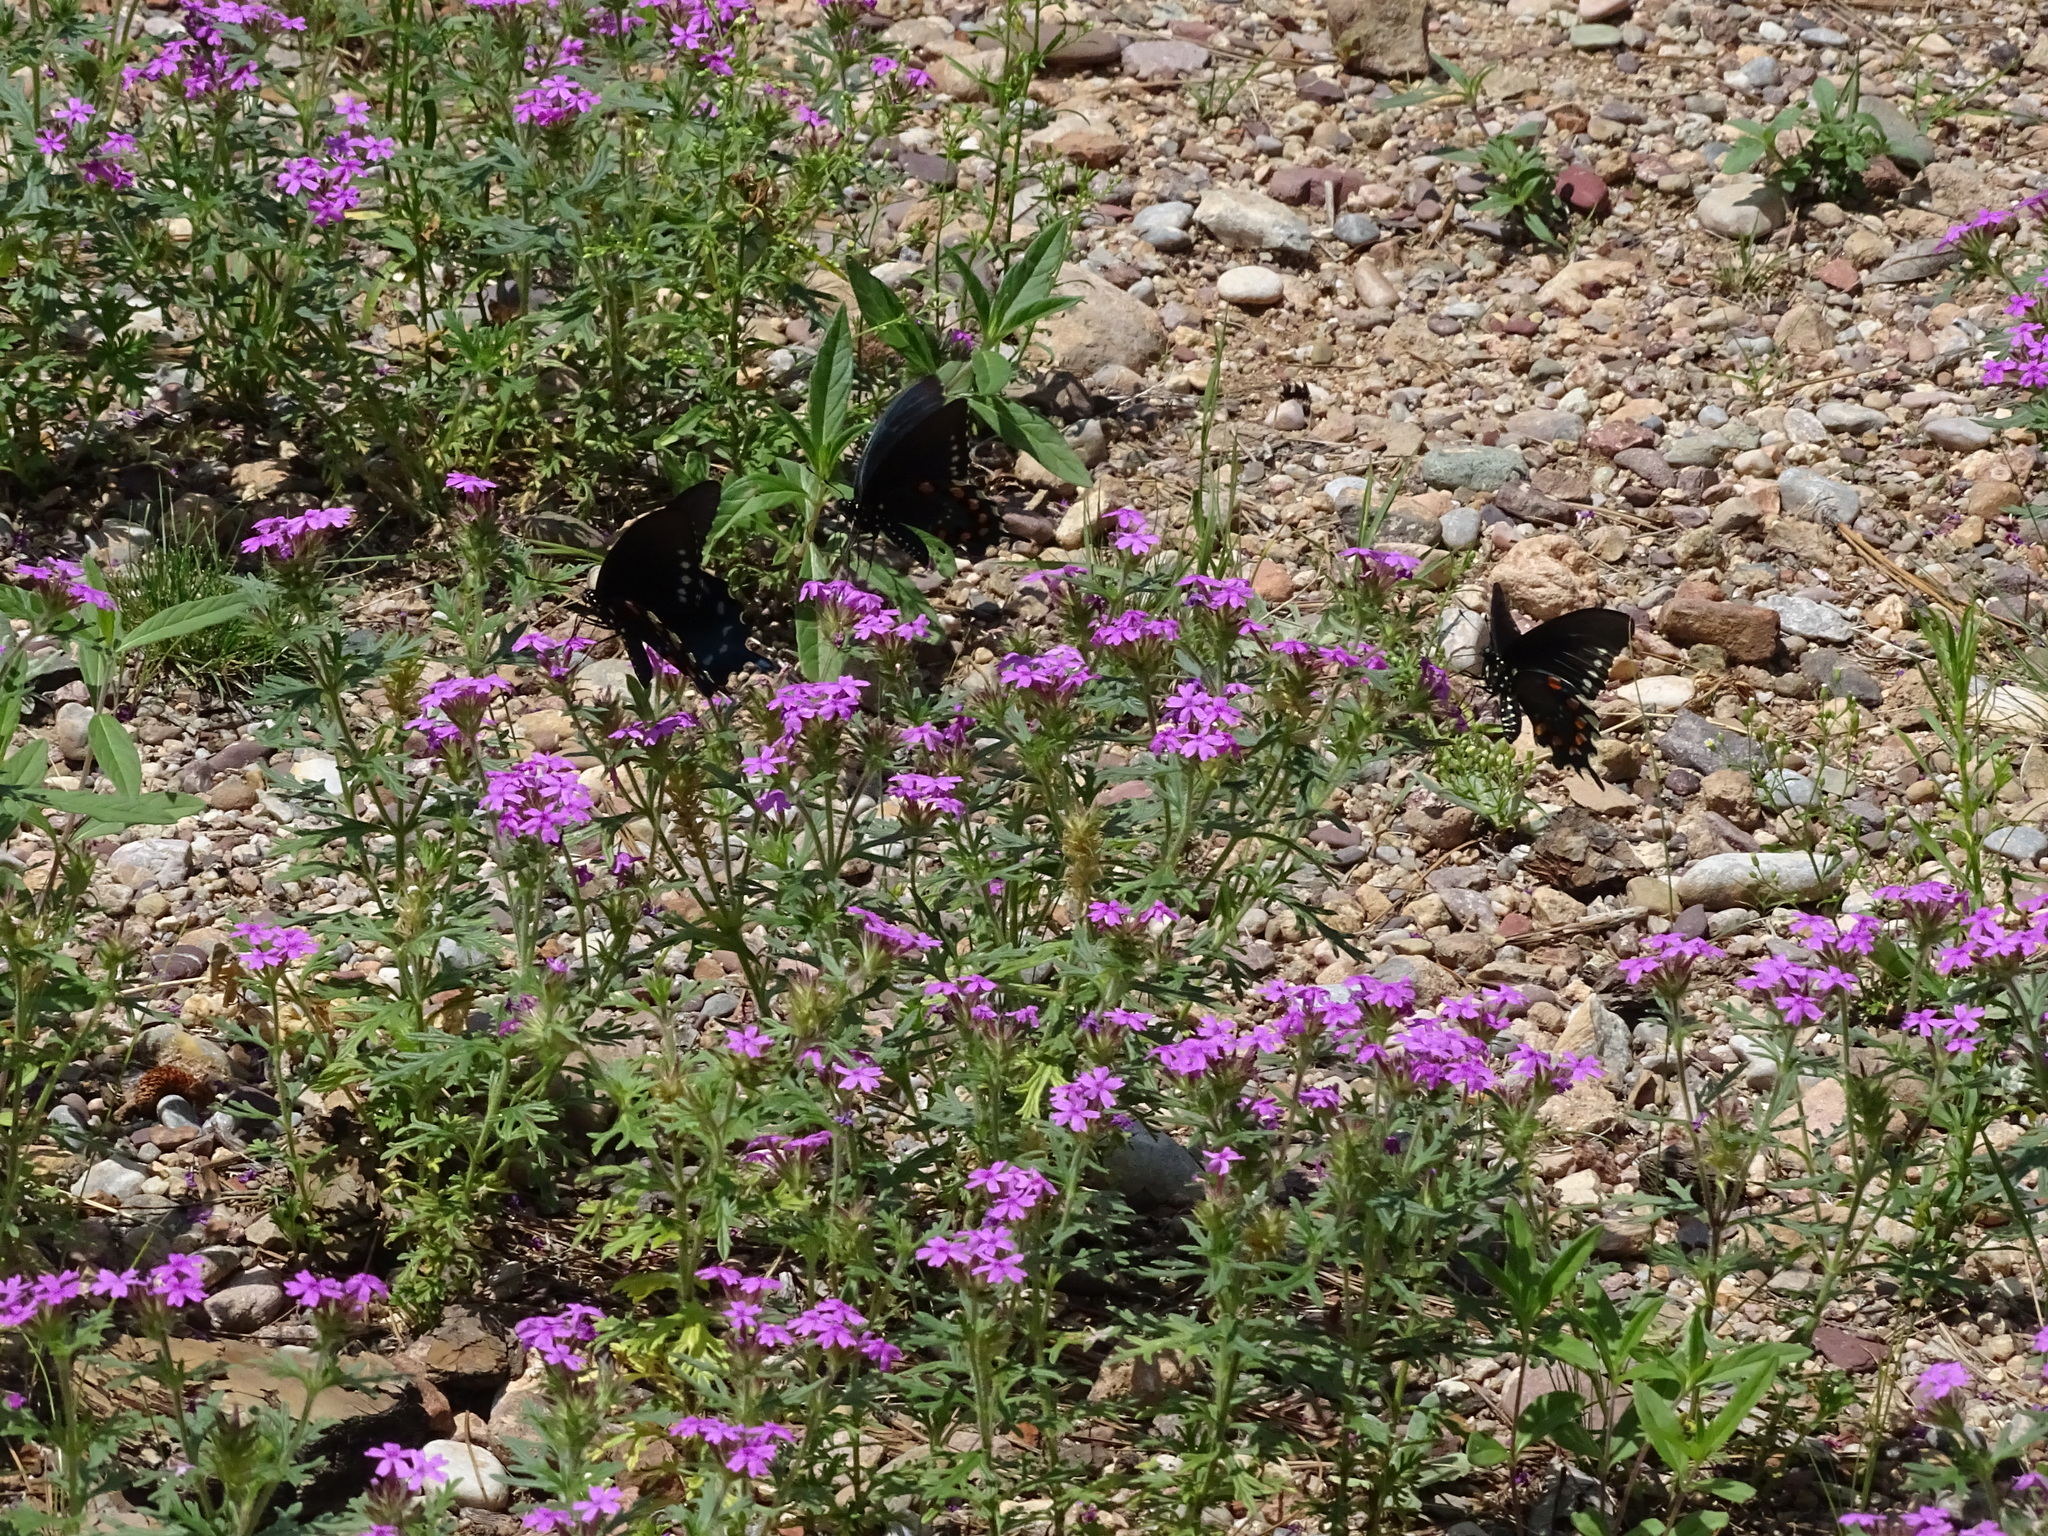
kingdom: Animalia
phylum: Arthropoda
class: Insecta
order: Lepidoptera
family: Papilionidae
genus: Battus
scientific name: Battus philenor
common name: Pipevine swallowtail
